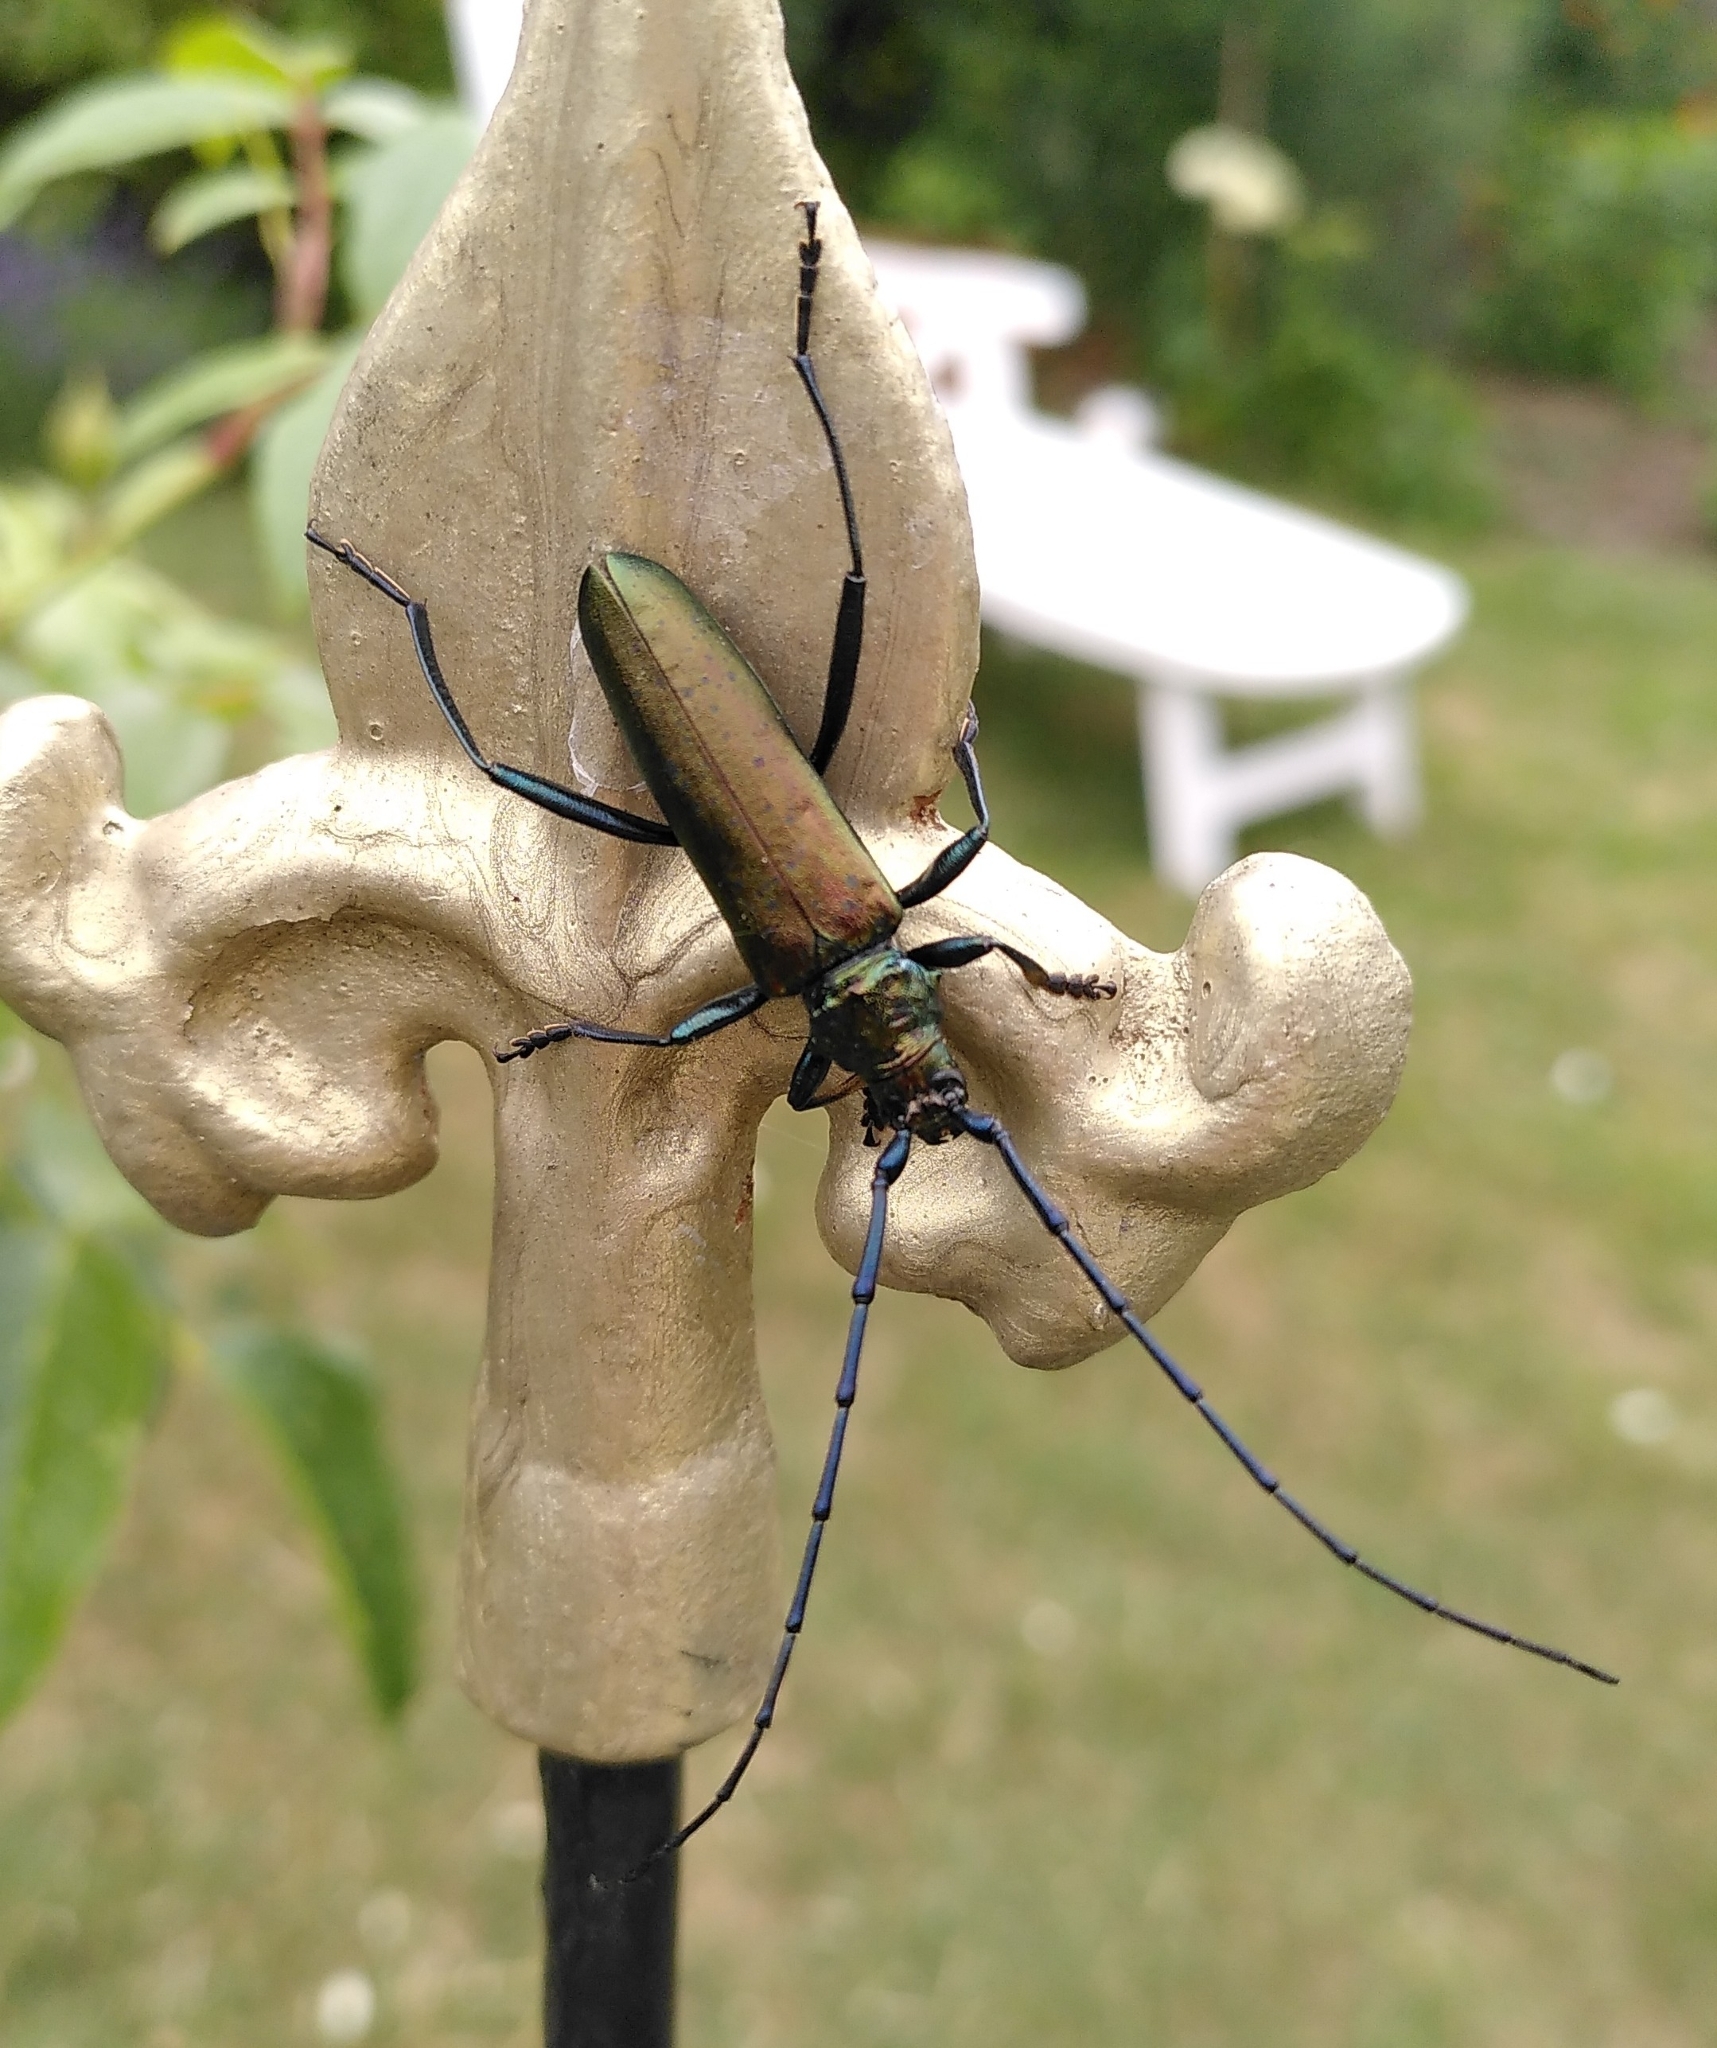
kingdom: Animalia
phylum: Arthropoda
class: Insecta
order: Coleoptera
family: Cerambycidae
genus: Aromia
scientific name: Aromia moschata
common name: Musk beetle
